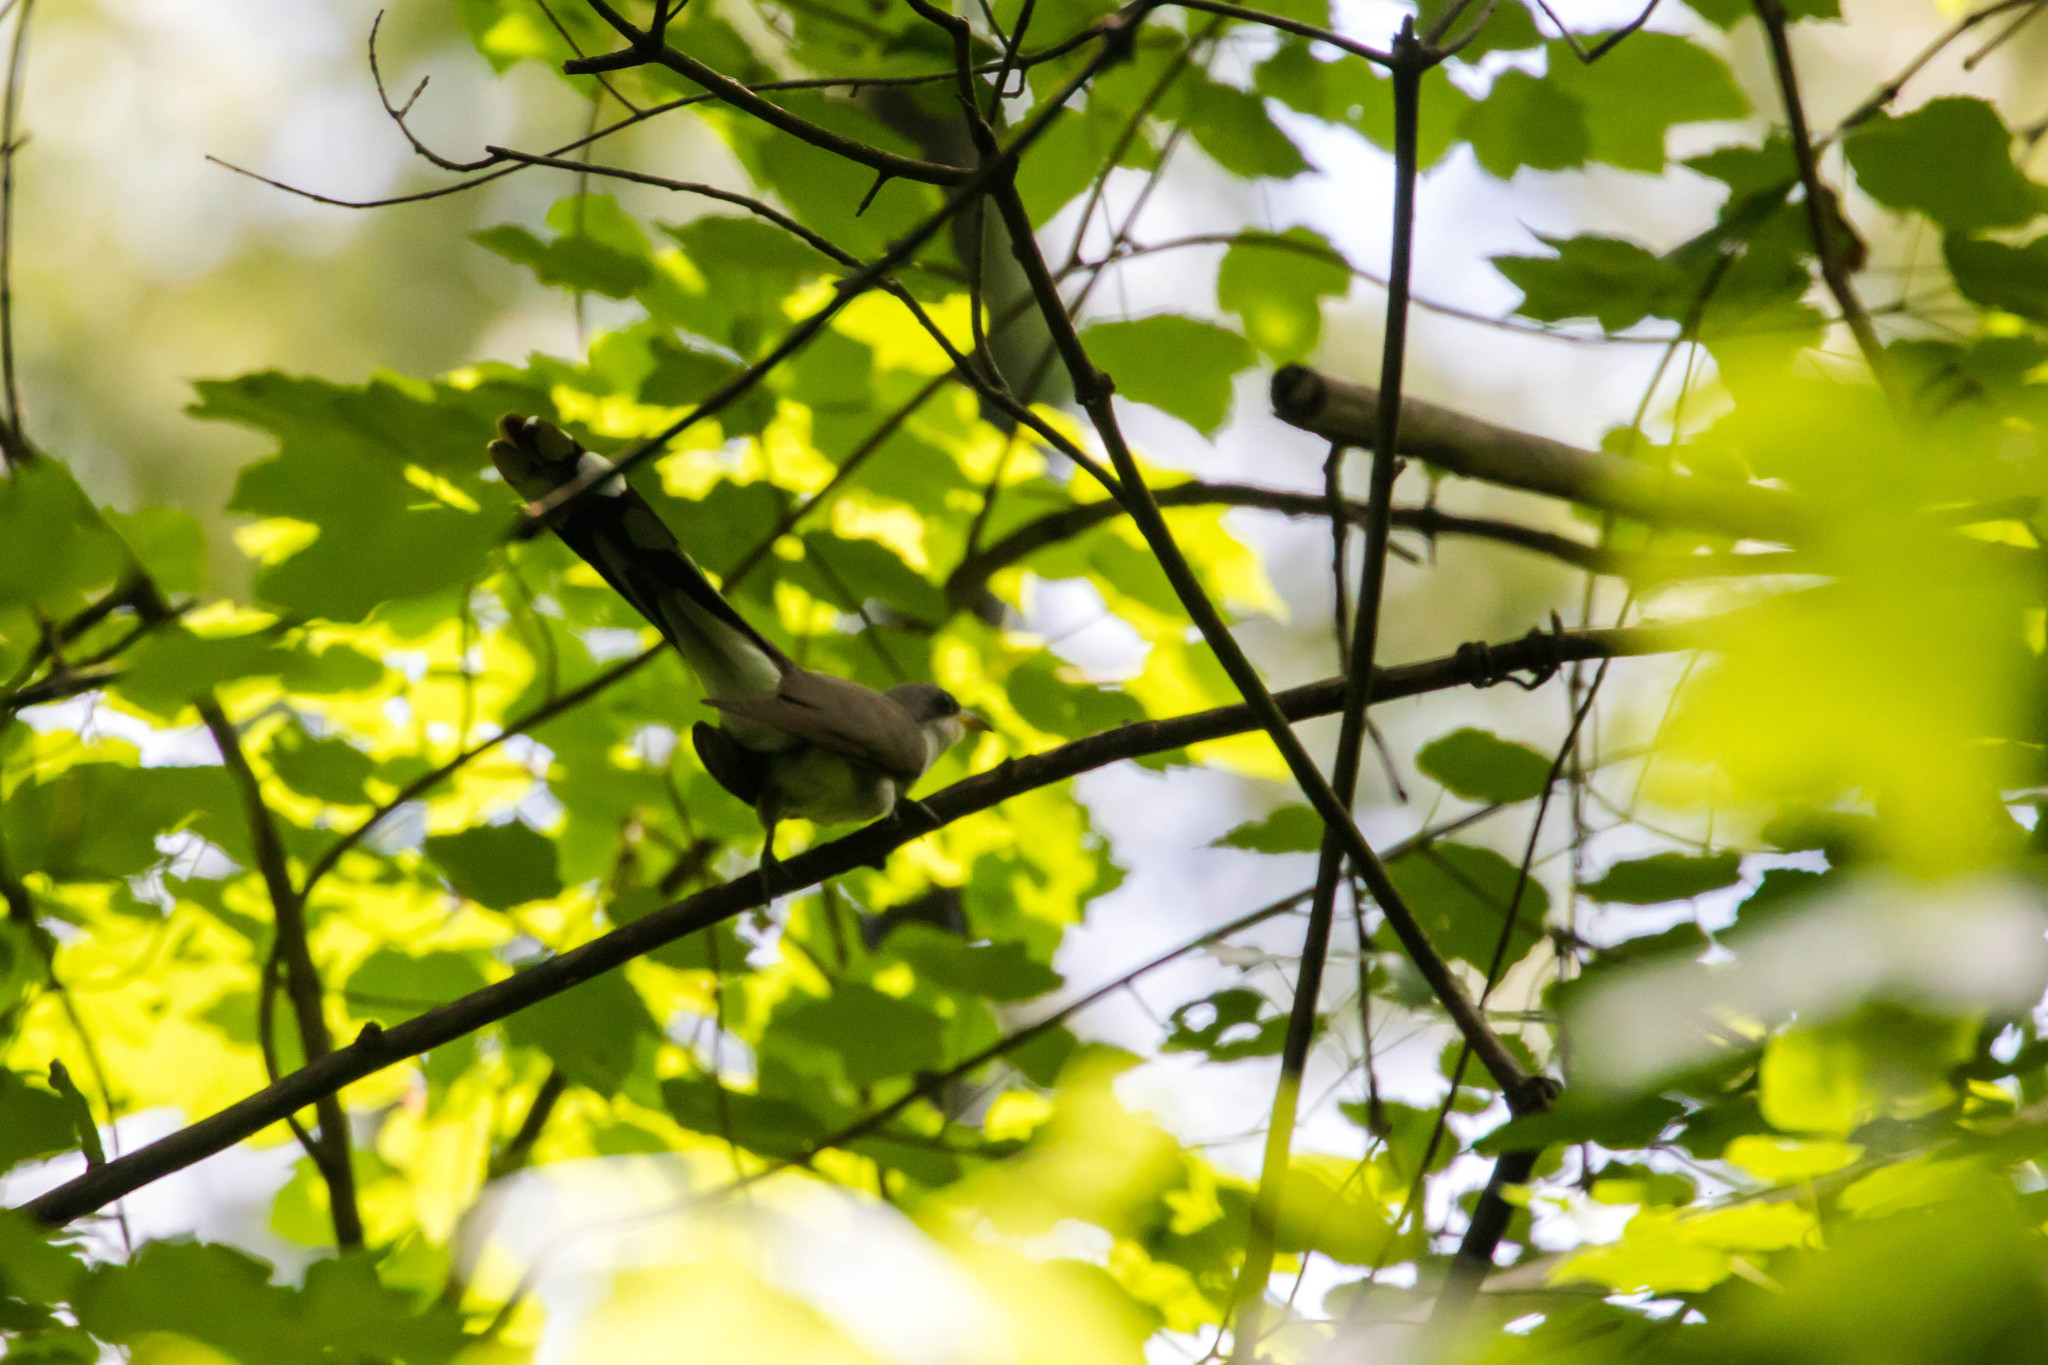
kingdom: Animalia
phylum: Chordata
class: Aves
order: Cuculiformes
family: Cuculidae
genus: Coccyzus
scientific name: Coccyzus americanus
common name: Yellow-billed cuckoo
